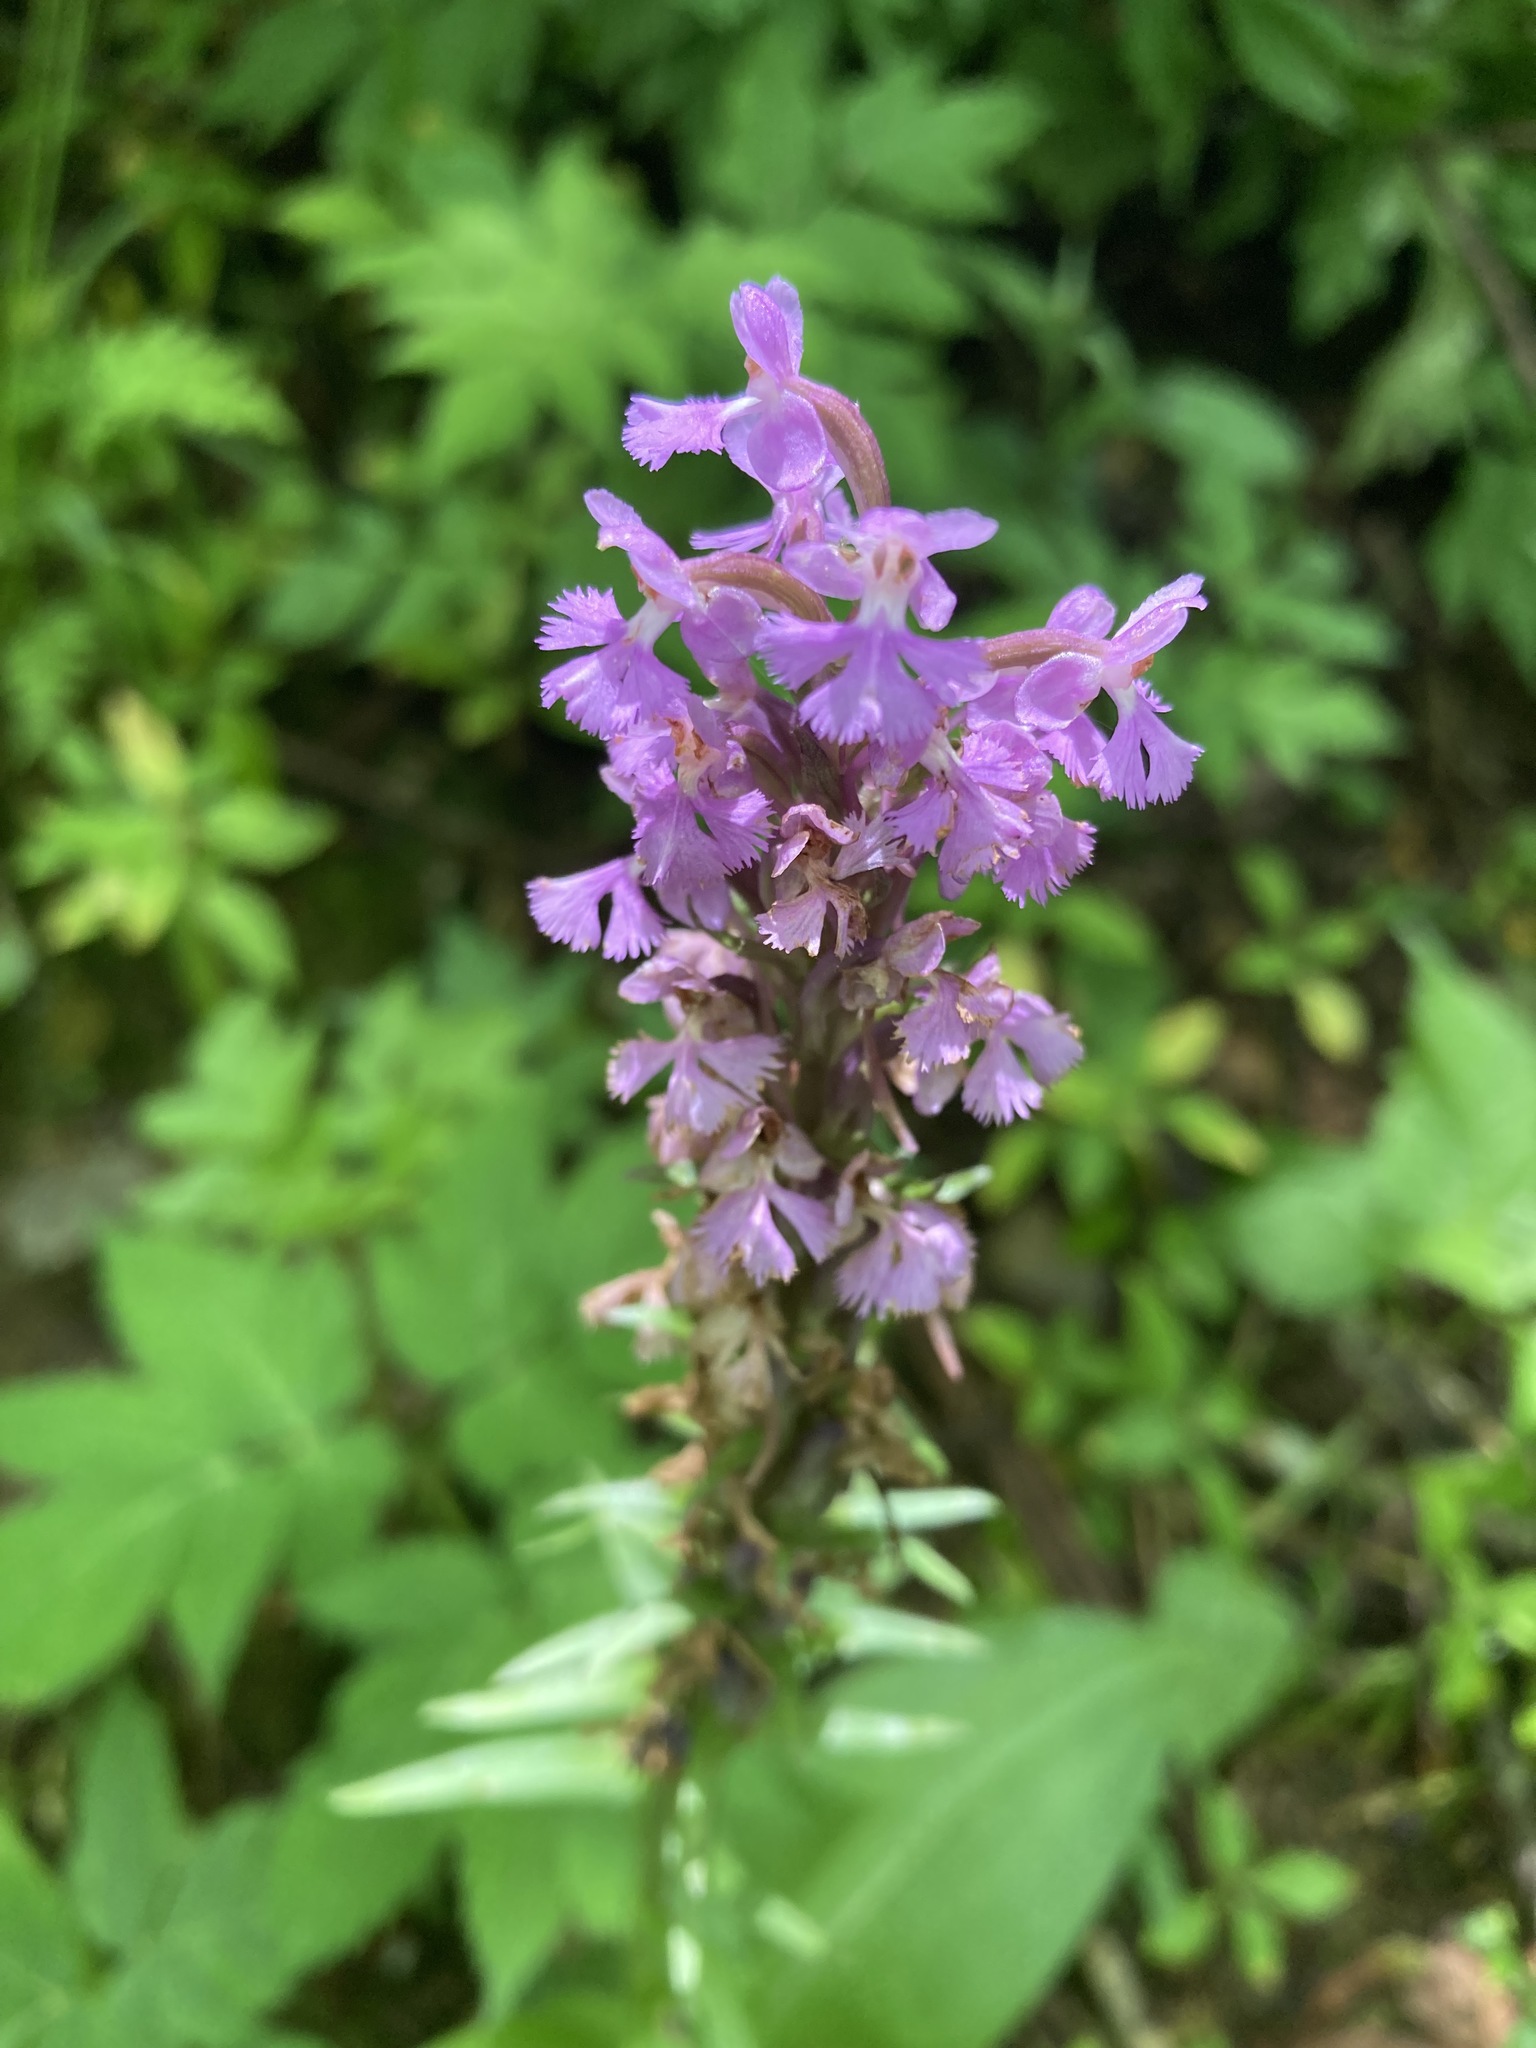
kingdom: Plantae
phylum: Tracheophyta
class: Liliopsida
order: Asparagales
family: Orchidaceae
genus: Platanthera
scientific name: Platanthera psycodes
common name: Lesser purple fringed orchid
